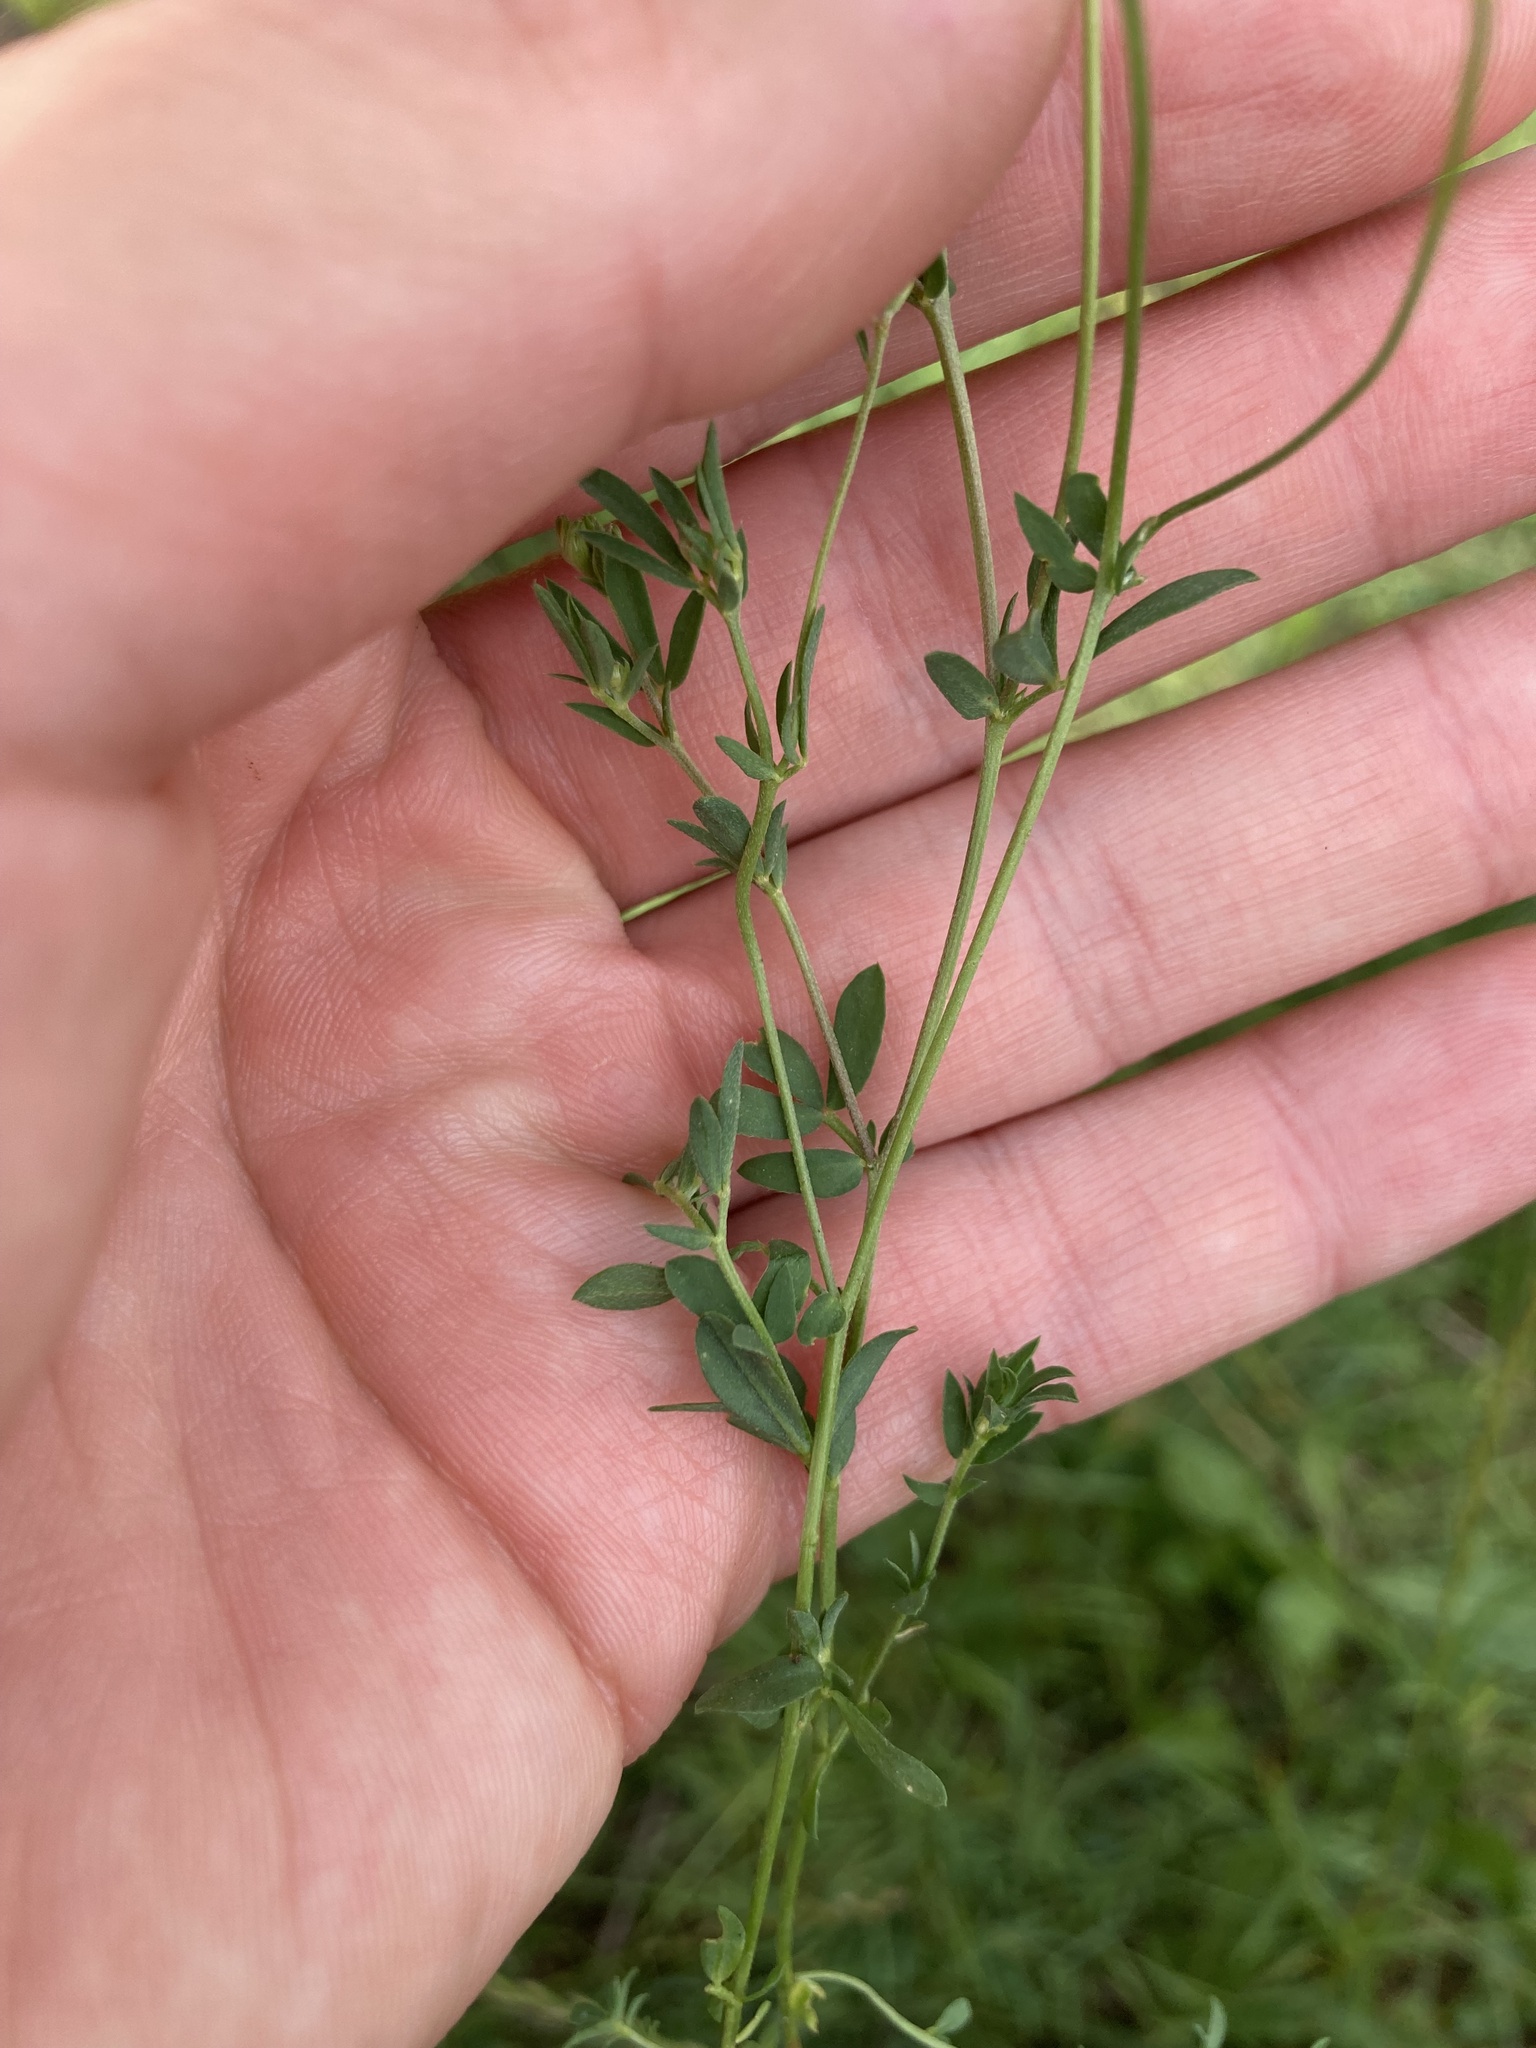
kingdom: Plantae
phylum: Tracheophyta
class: Magnoliopsida
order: Fabales
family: Fabaceae
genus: Lotus
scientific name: Lotus tenuis
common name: Narrow-leaved bird's-foot-trefoil
